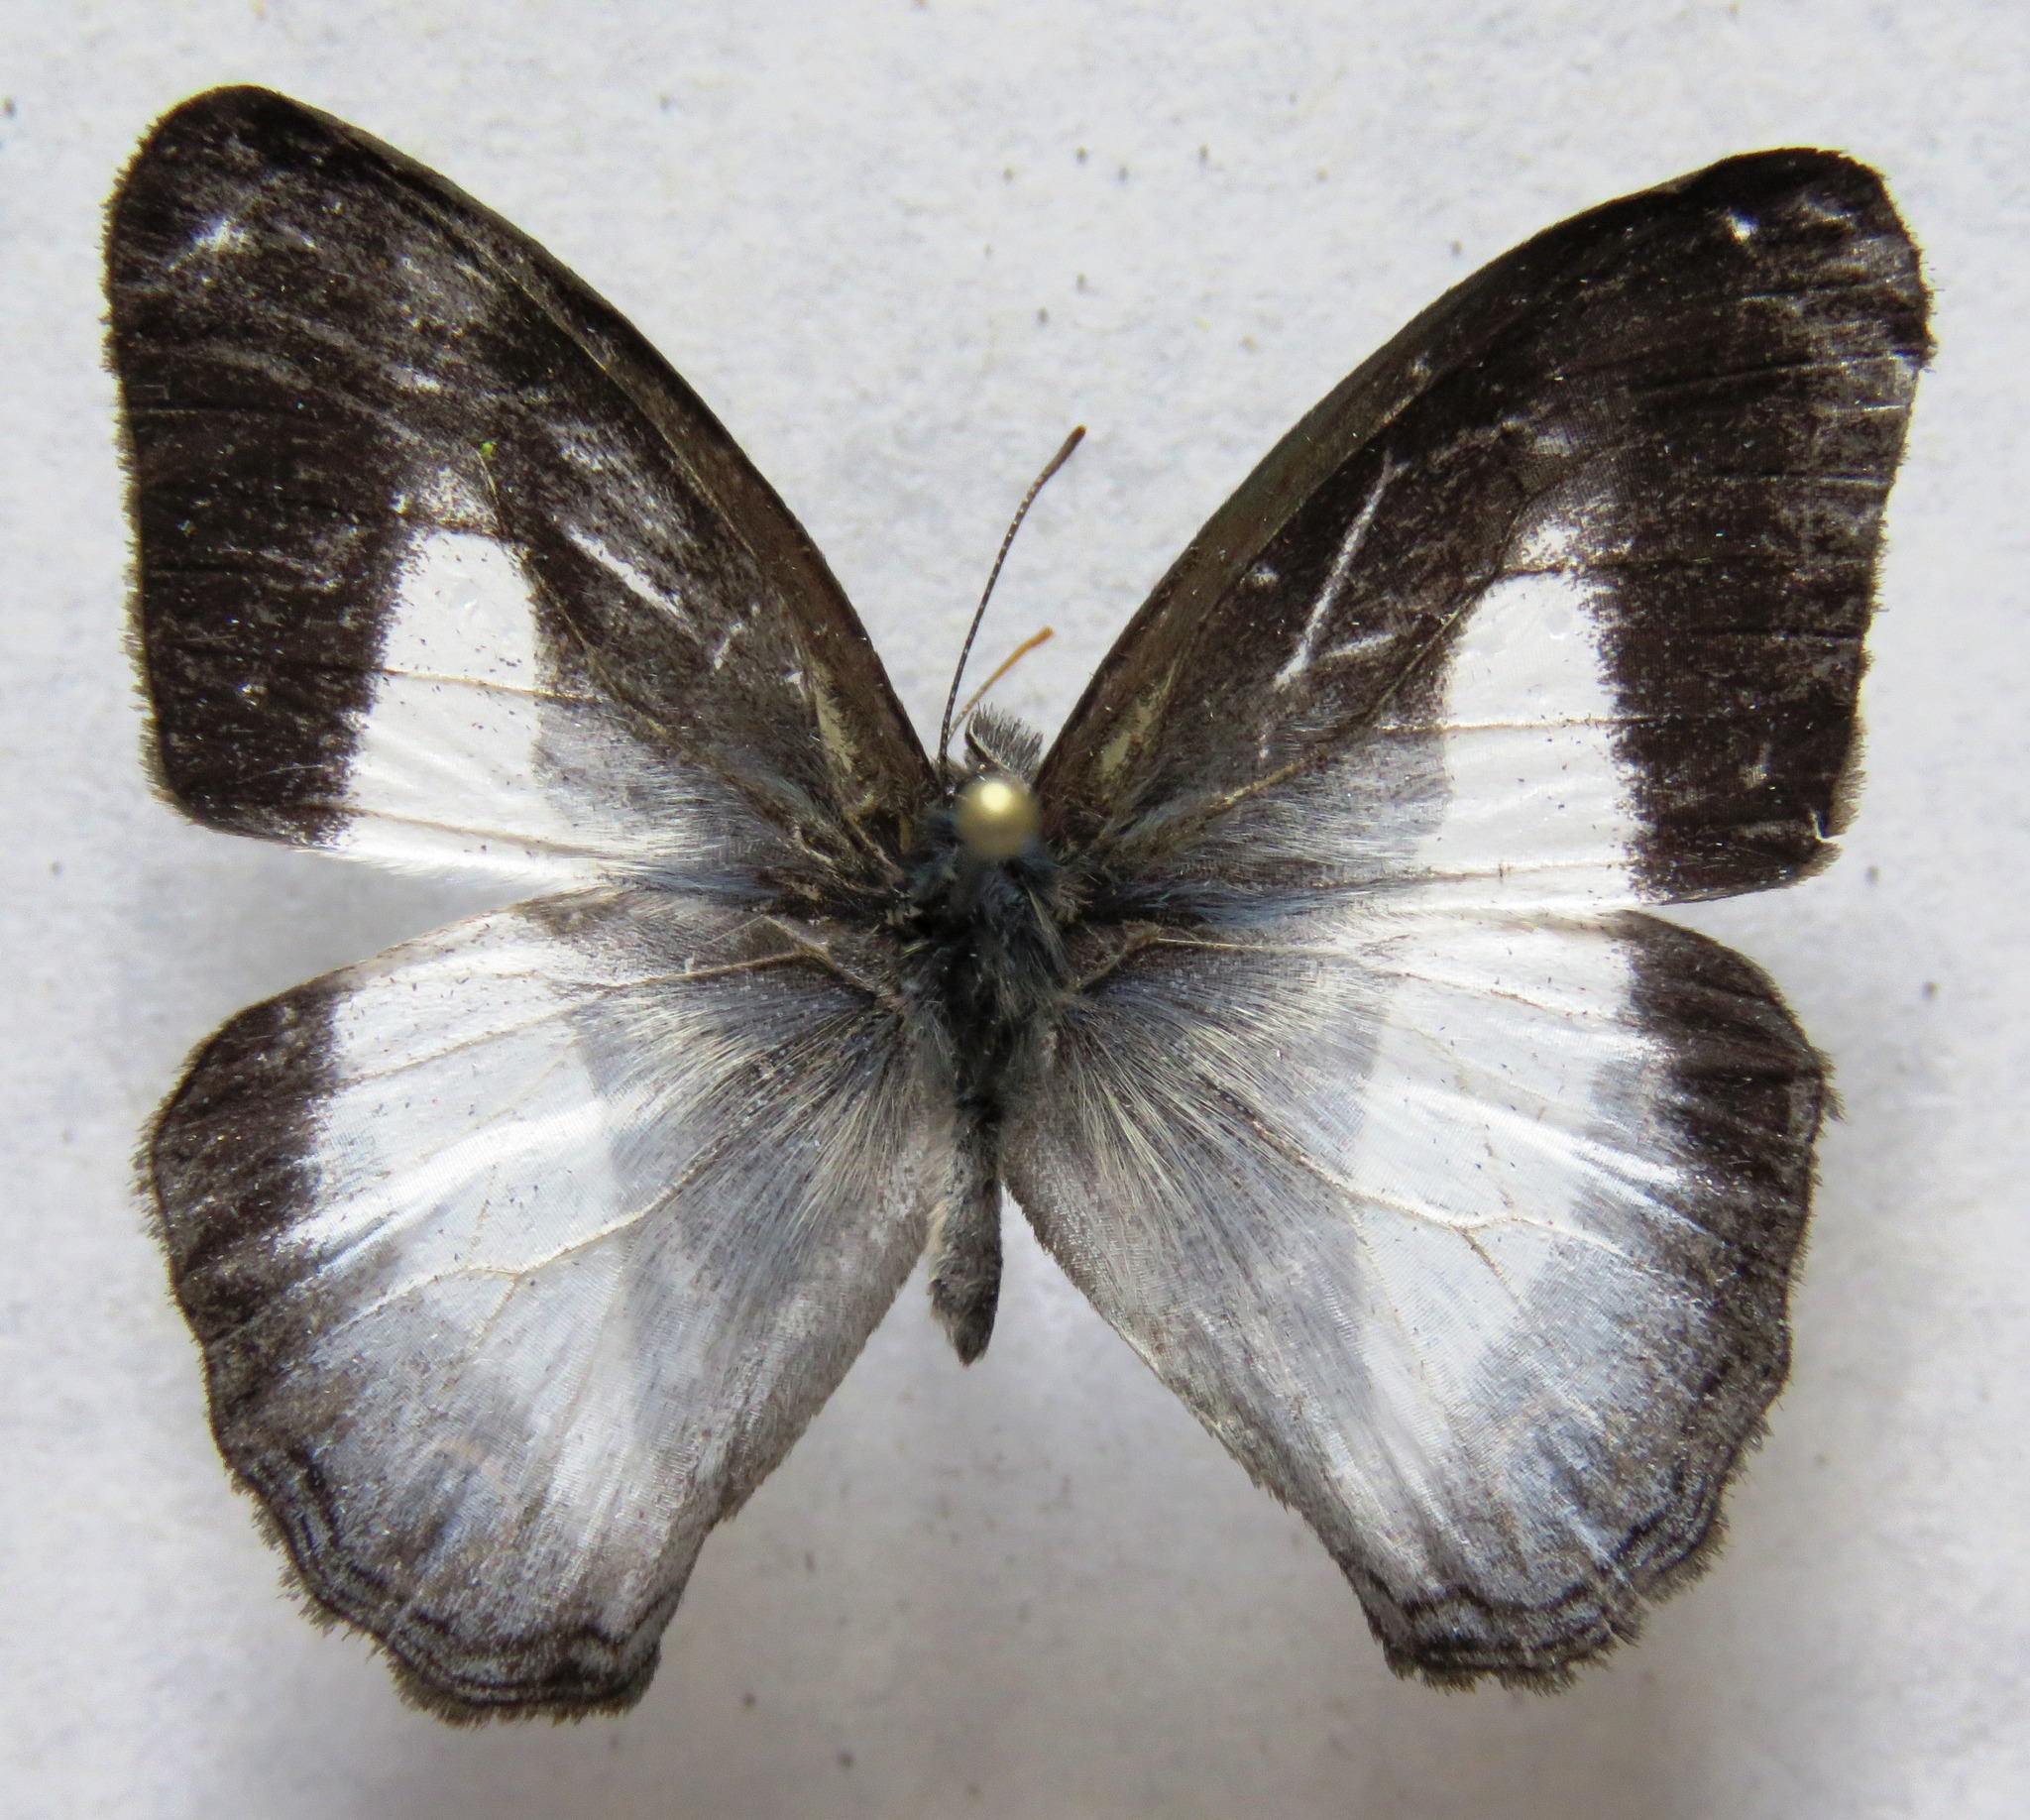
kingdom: Animalia
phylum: Arthropoda
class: Insecta
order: Lepidoptera
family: Nymphalidae
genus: Pareuptychia
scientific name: Pareuptychia metaleuca
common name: White-banded satyr
